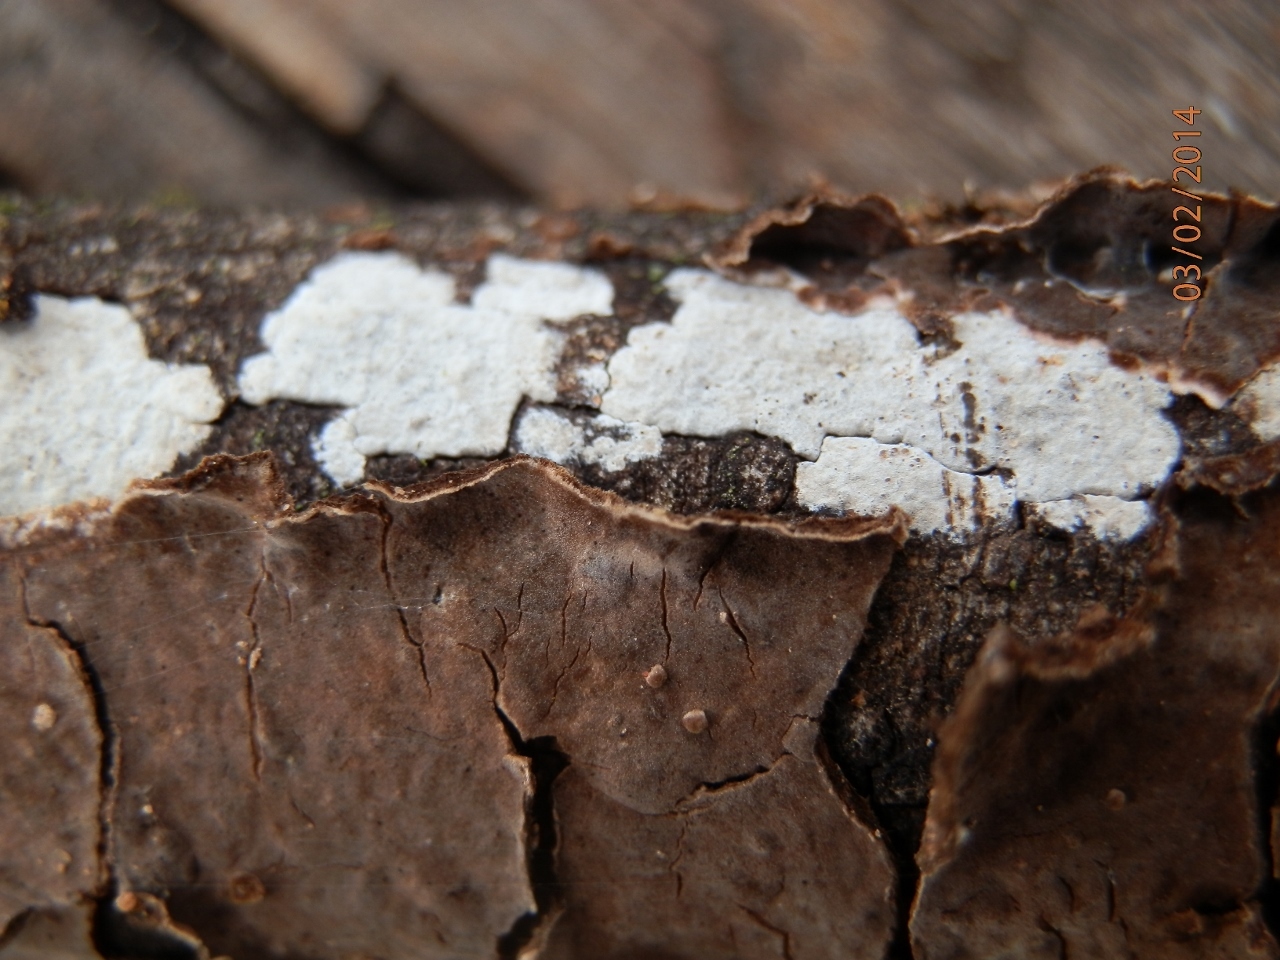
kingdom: Fungi
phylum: Basidiomycota
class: Agaricomycetes
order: Russulales
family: Peniophoraceae
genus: Peniophora
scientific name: Peniophora tamaricicola
